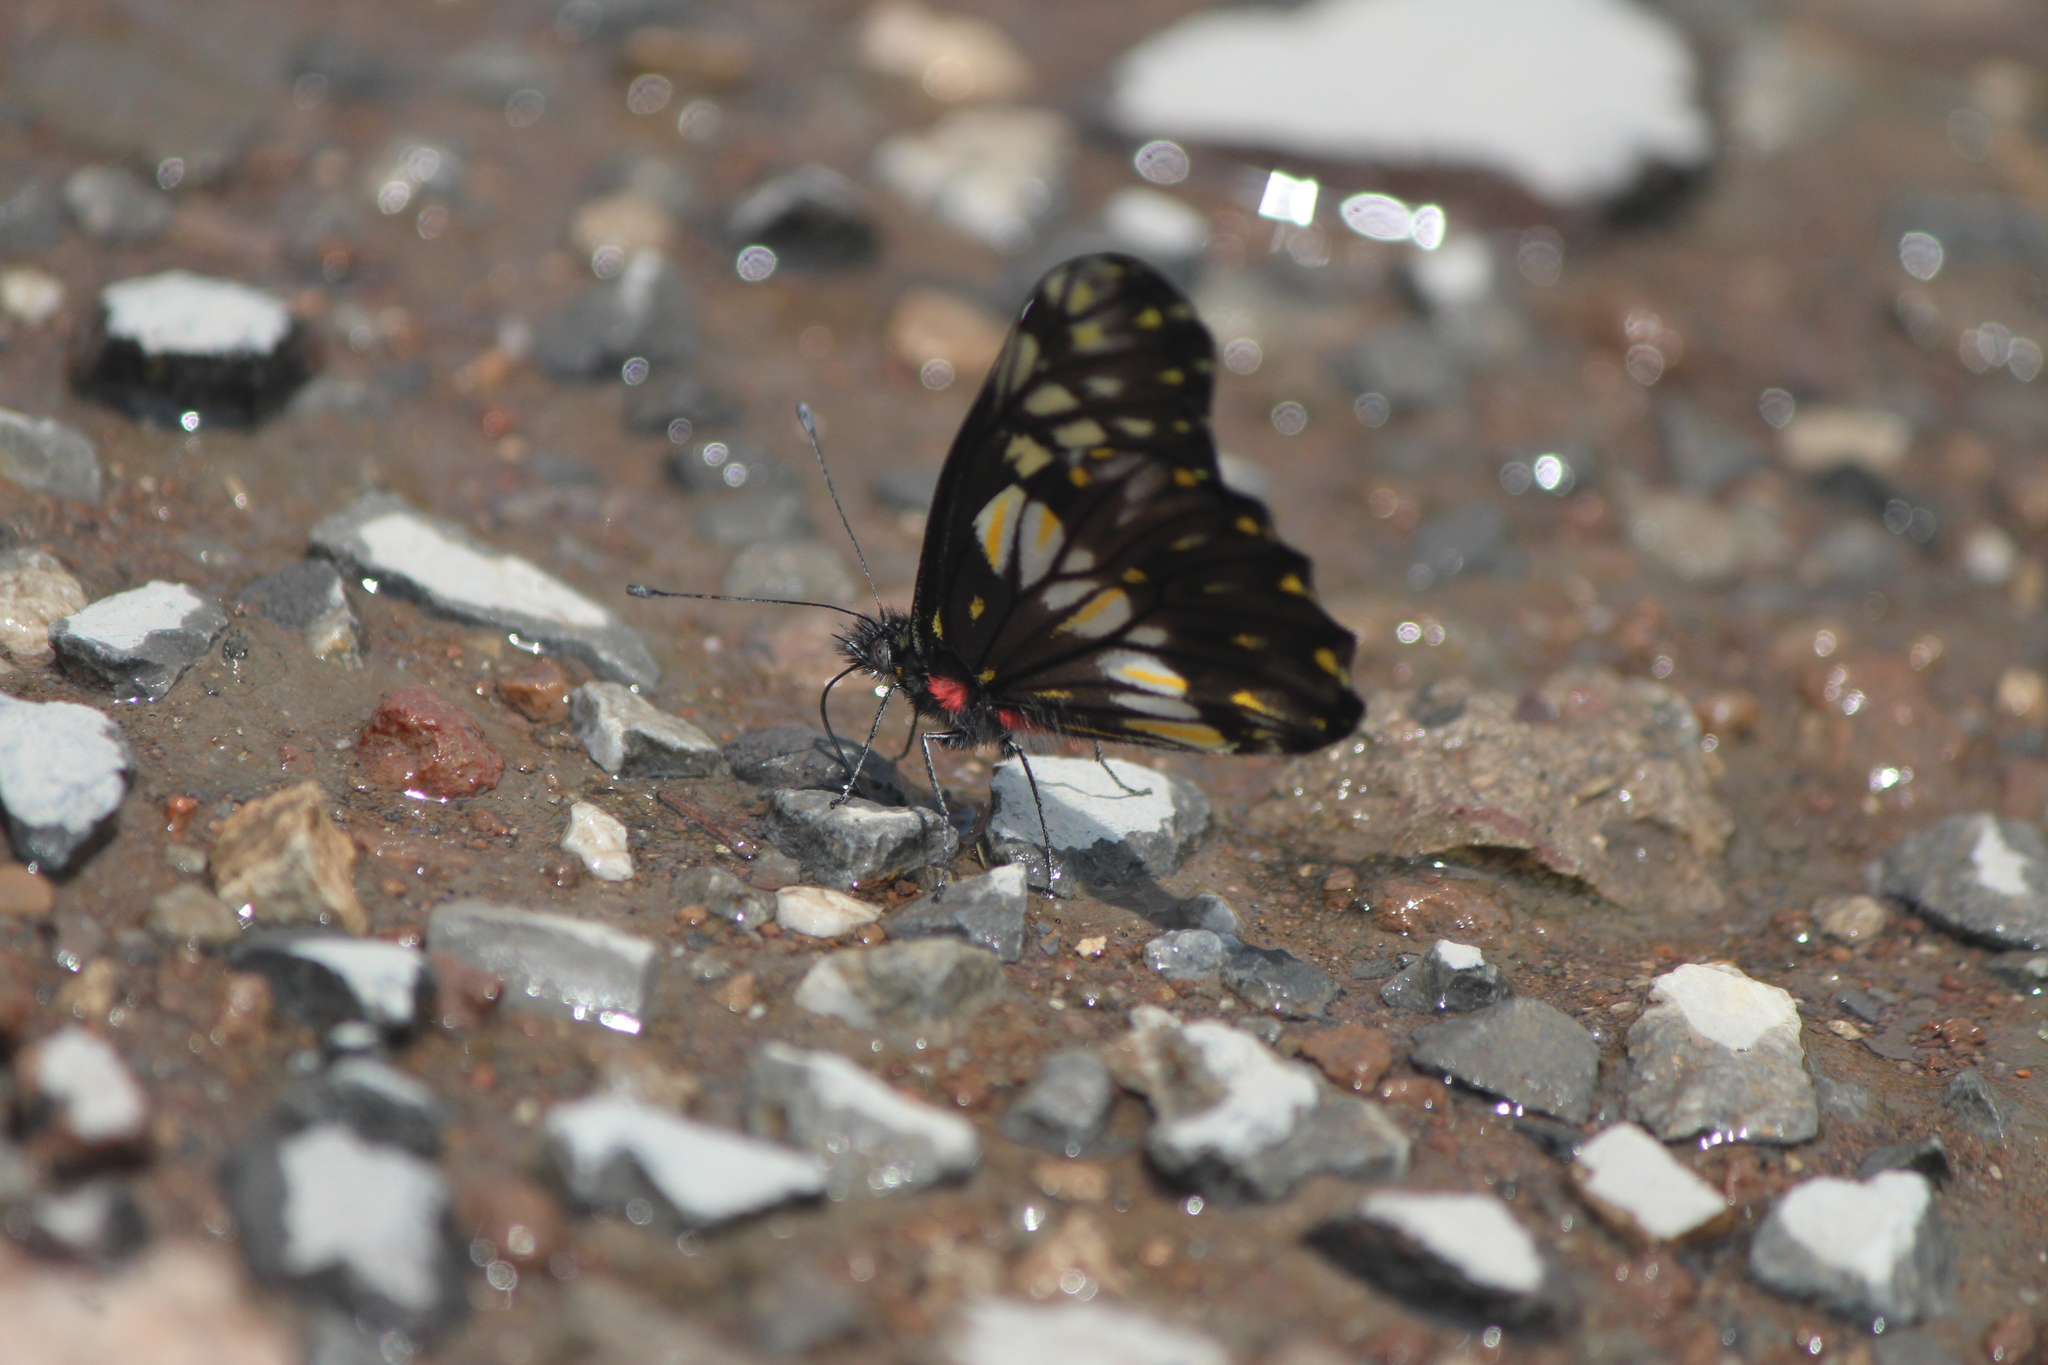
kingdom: Animalia
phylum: Arthropoda
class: Insecta
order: Lepidoptera
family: Pieridae
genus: Archonias
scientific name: Archonias nimbice
